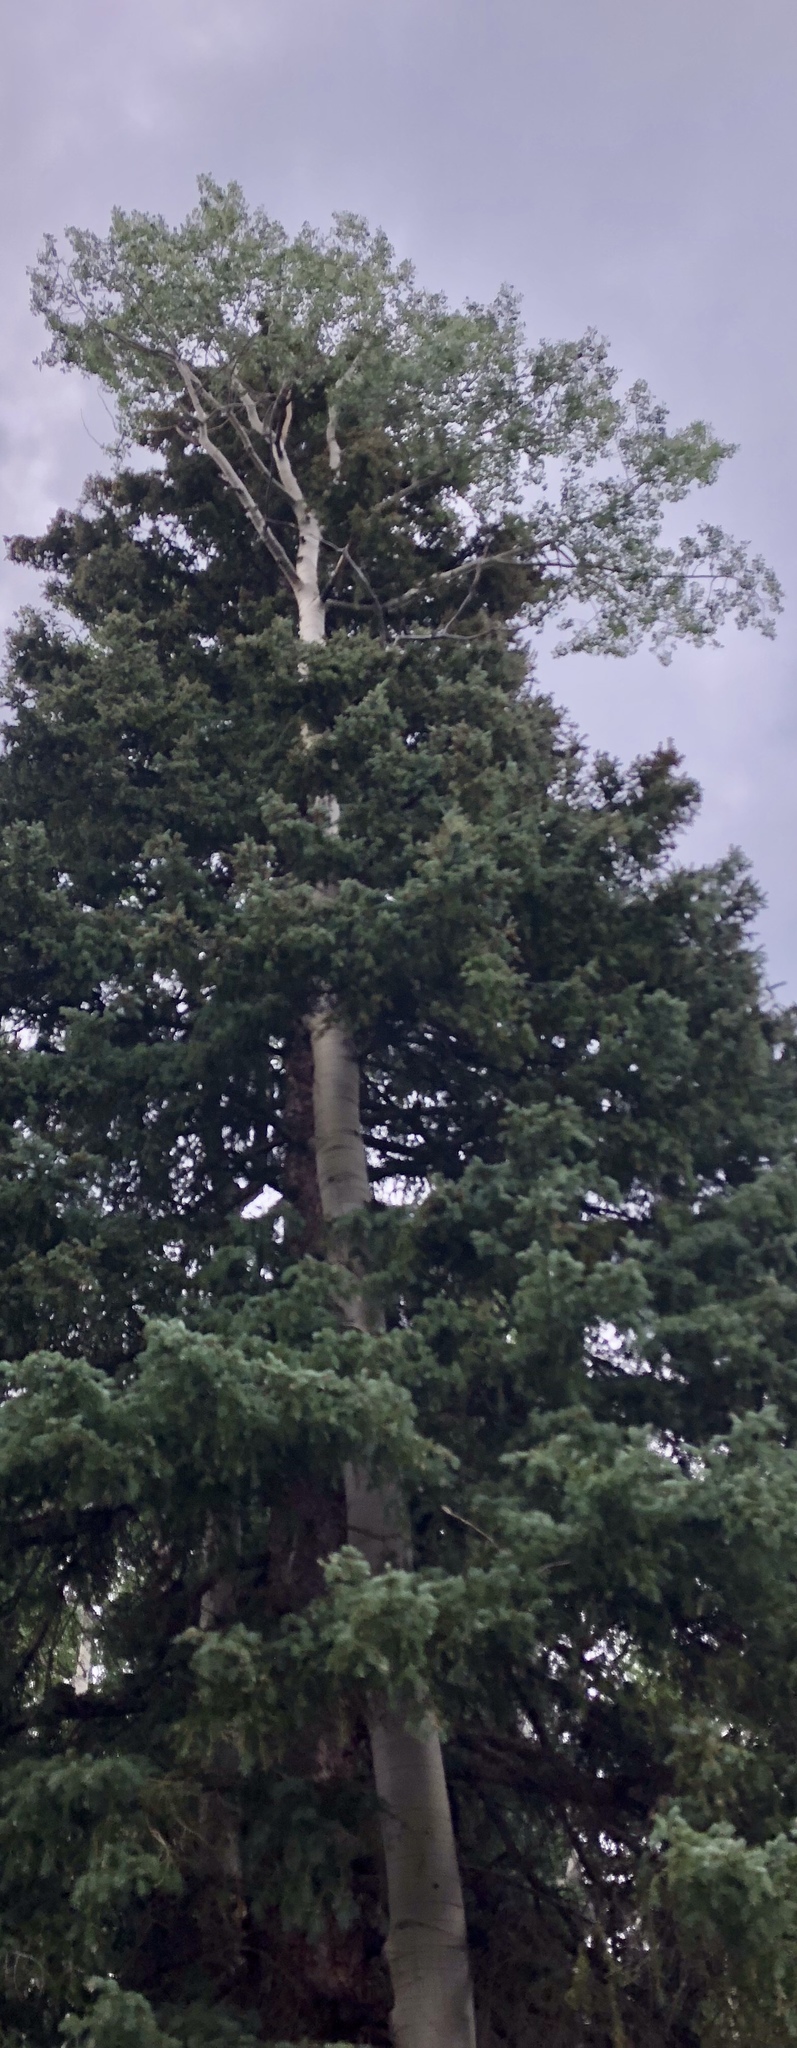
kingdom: Plantae
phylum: Tracheophyta
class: Magnoliopsida
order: Malpighiales
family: Salicaceae
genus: Populus
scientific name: Populus tremuloides
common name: Quaking aspen
